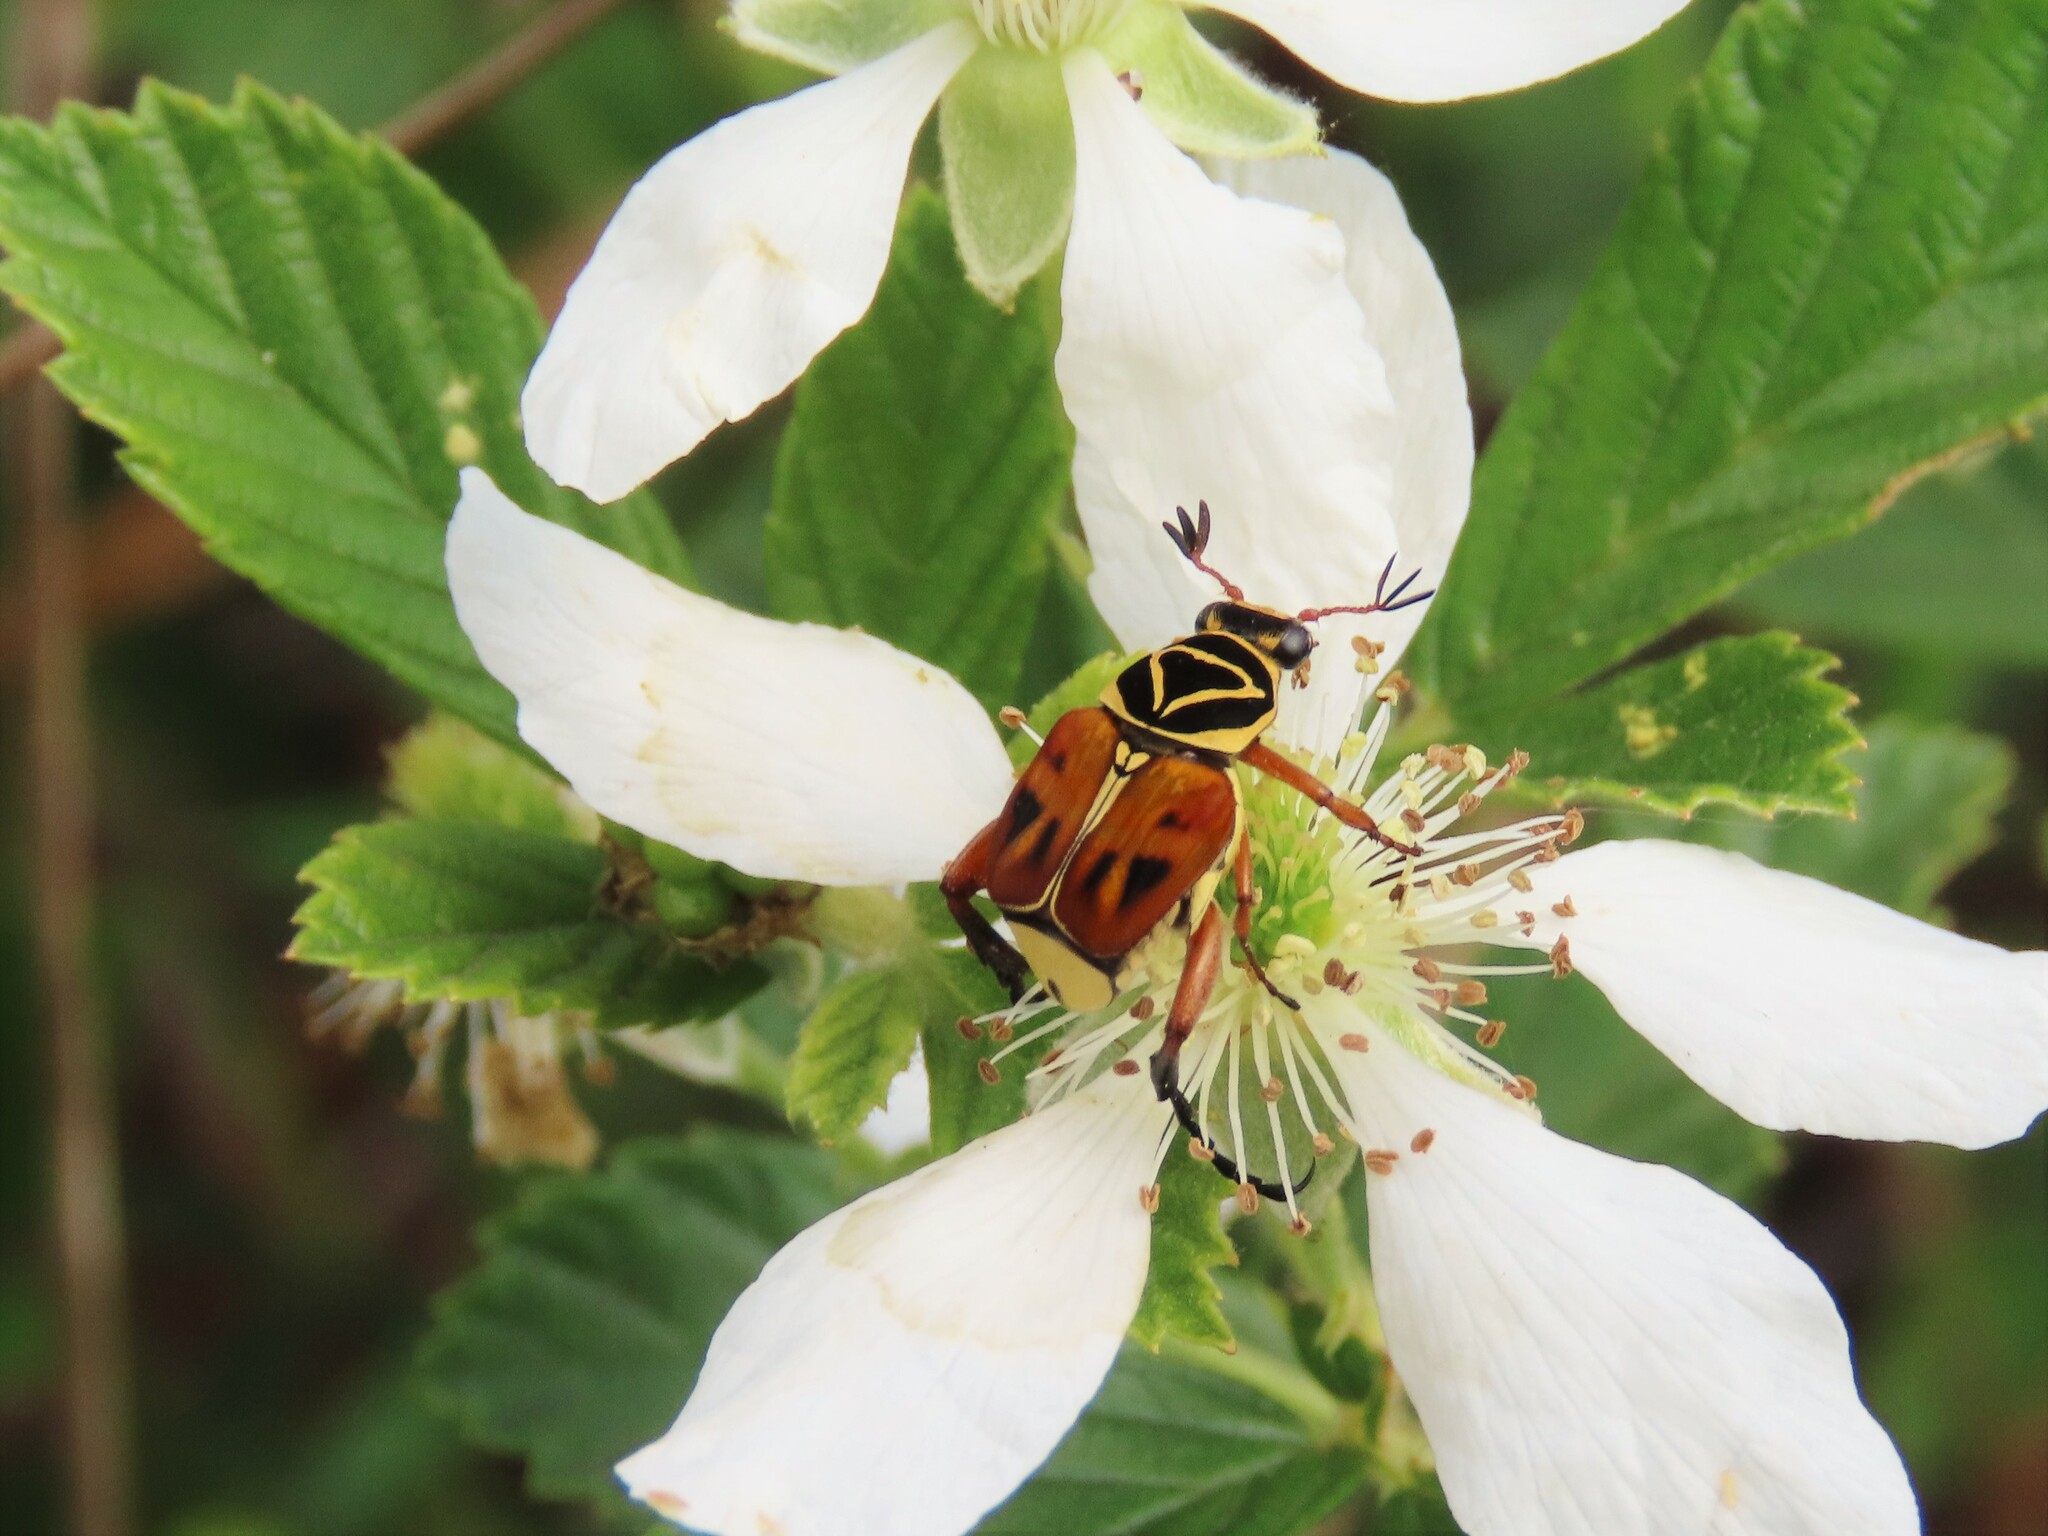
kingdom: Animalia
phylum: Arthropoda
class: Insecta
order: Coleoptera
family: Scarabaeidae
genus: Trigonopeltastes
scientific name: Trigonopeltastes delta
